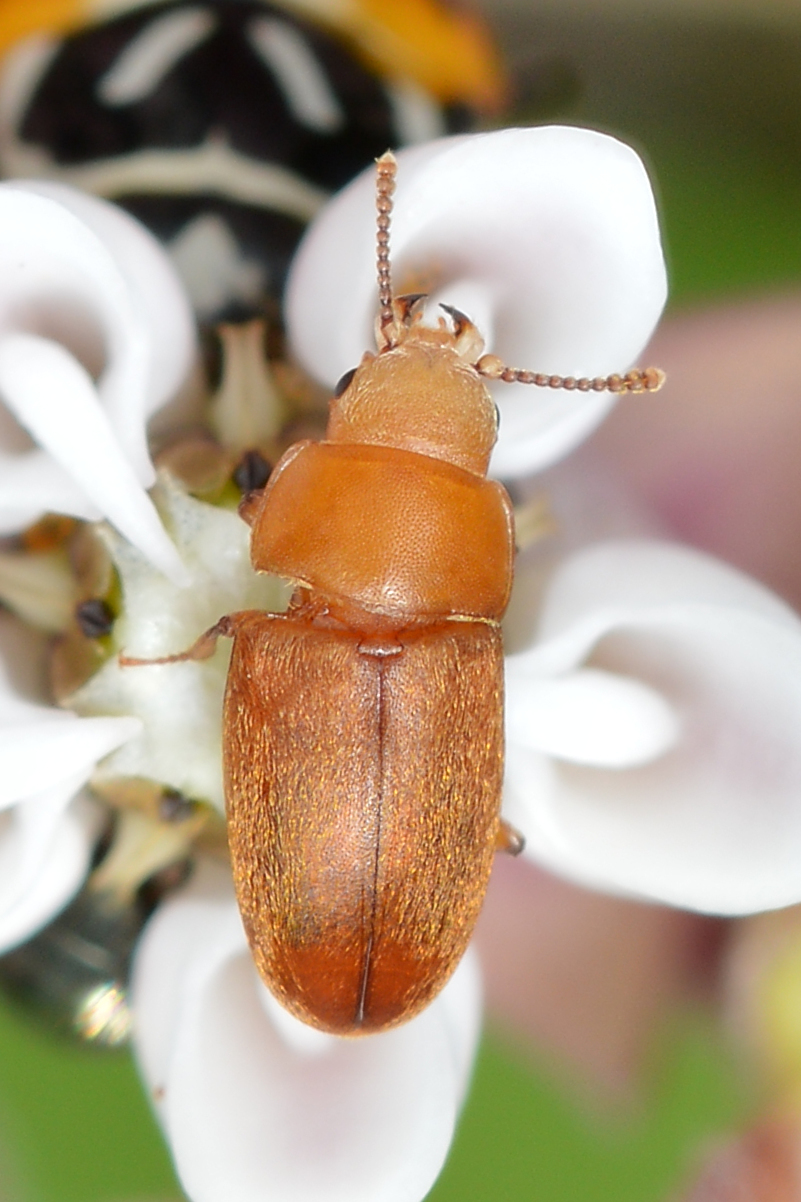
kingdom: Animalia
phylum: Arthropoda
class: Insecta
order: Coleoptera
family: Cryptophagidae
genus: Antherophagus
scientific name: Antherophagus ochraceus
